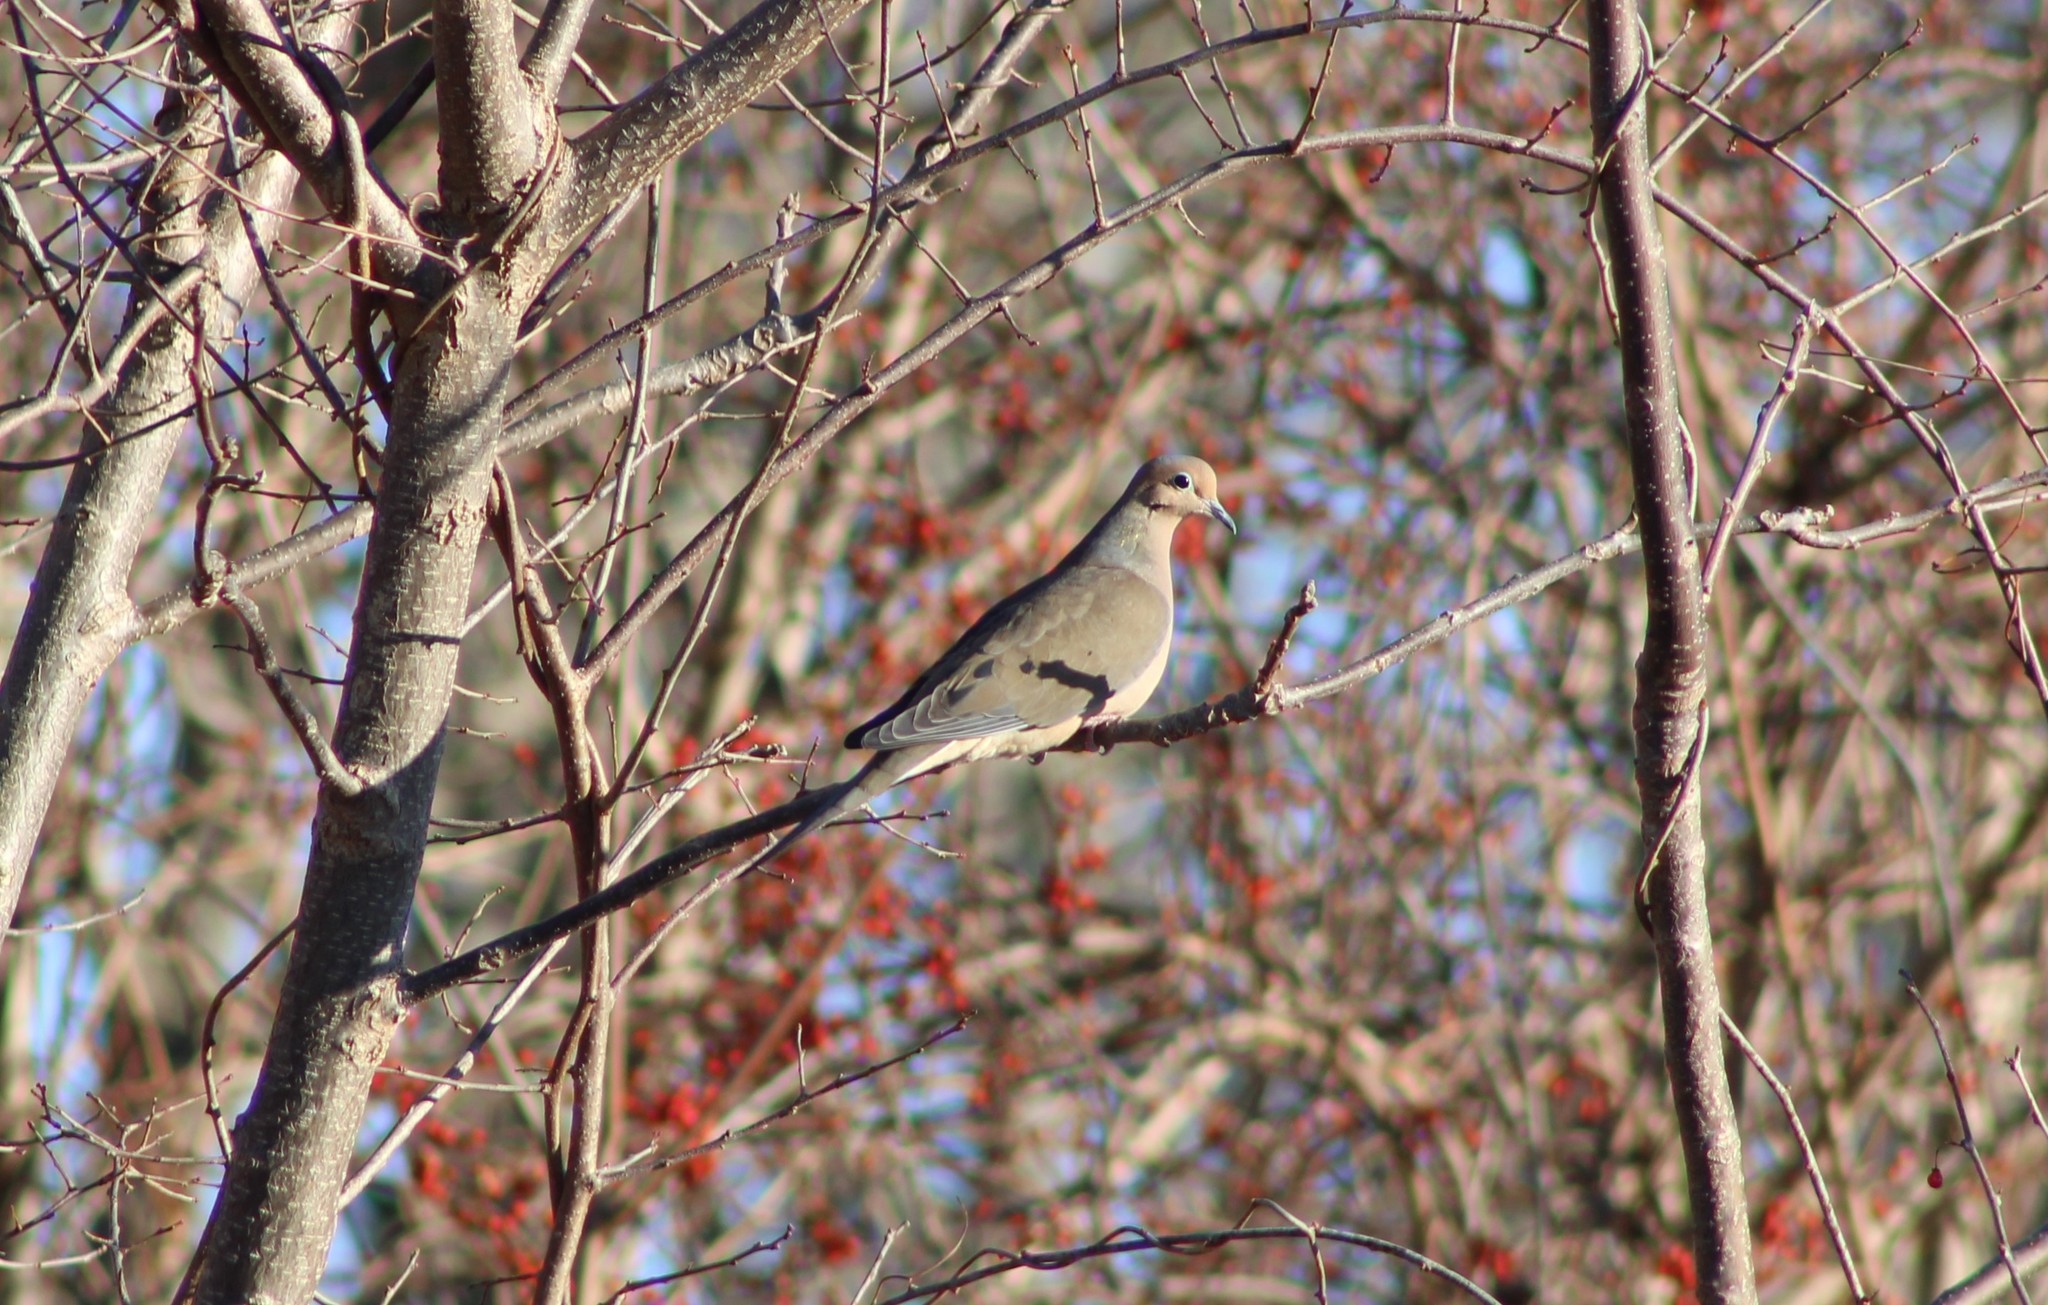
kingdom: Animalia
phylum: Chordata
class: Aves
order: Columbiformes
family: Columbidae
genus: Zenaida
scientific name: Zenaida macroura
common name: Mourning dove
